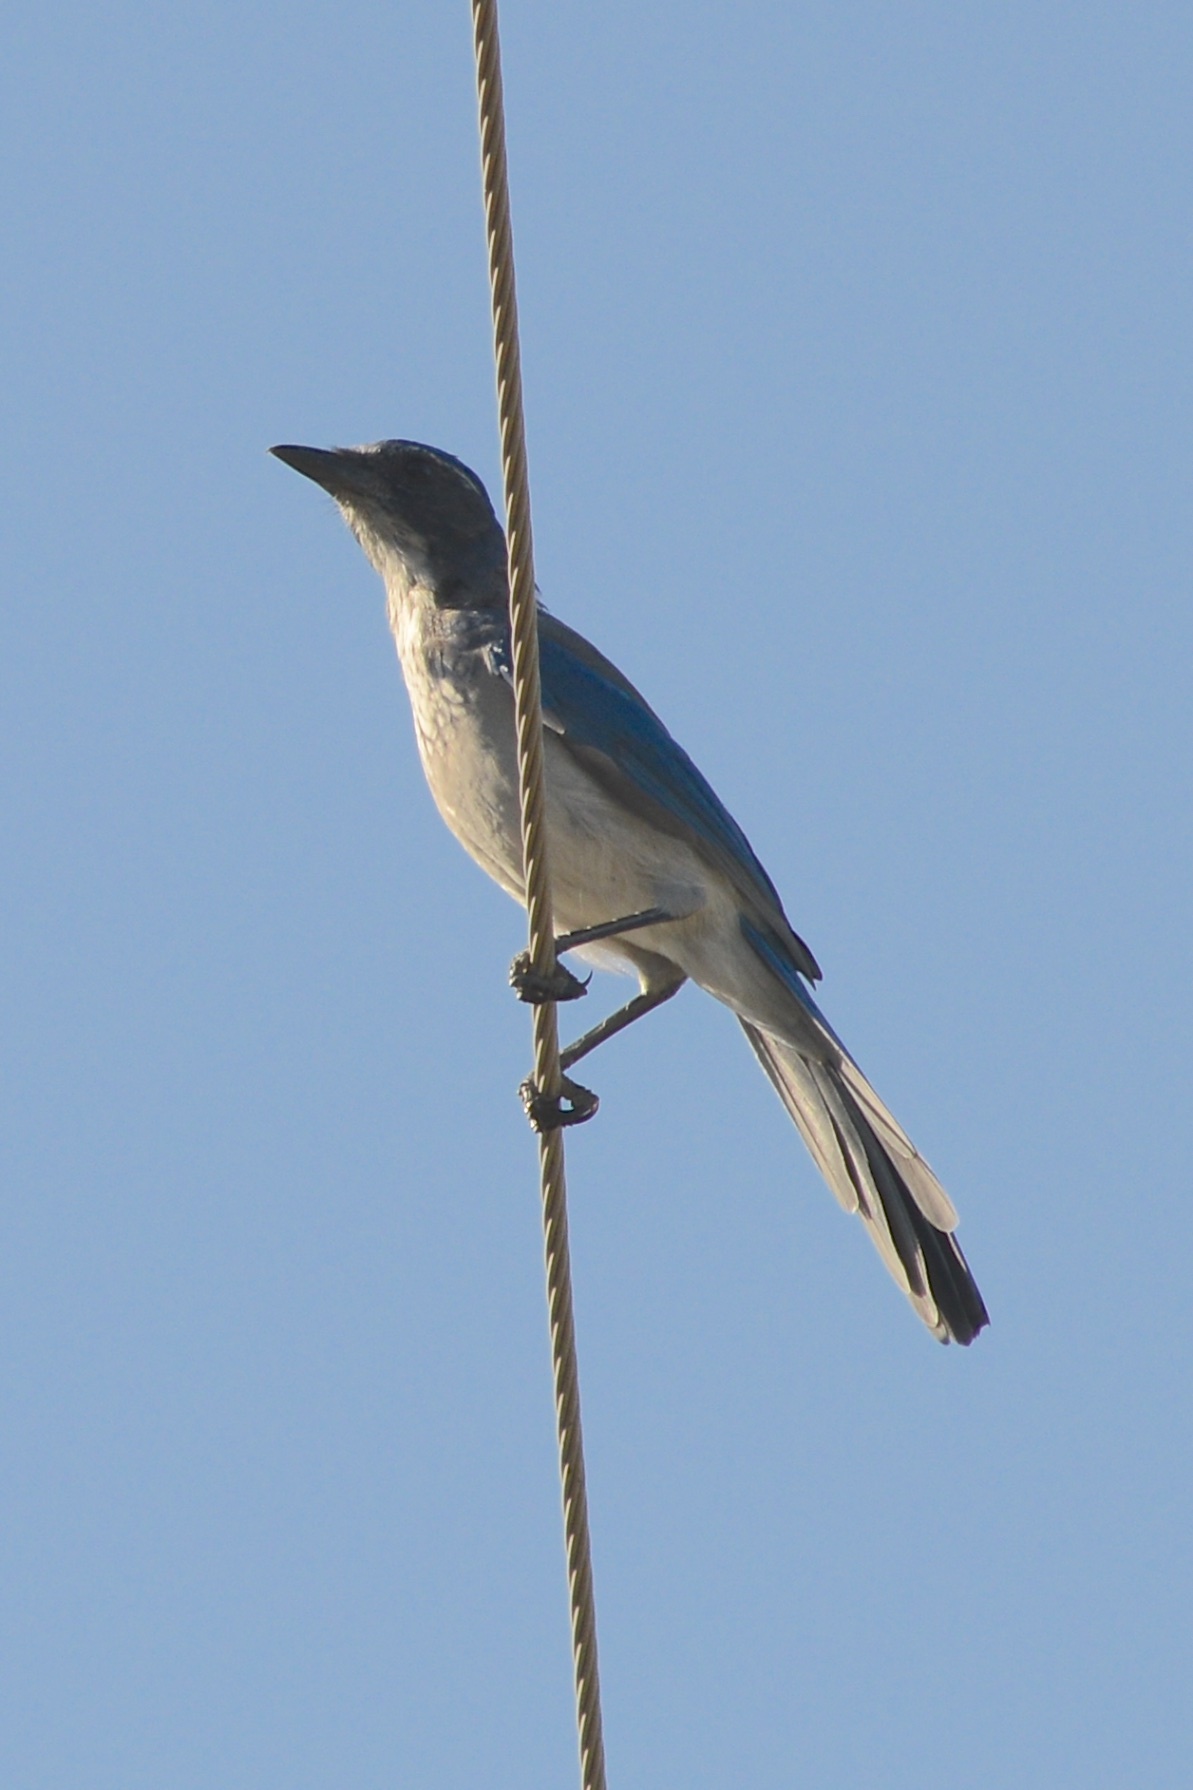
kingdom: Animalia
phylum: Chordata
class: Aves
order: Passeriformes
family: Corvidae
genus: Aphelocoma
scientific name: Aphelocoma californica
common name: California scrub-jay
